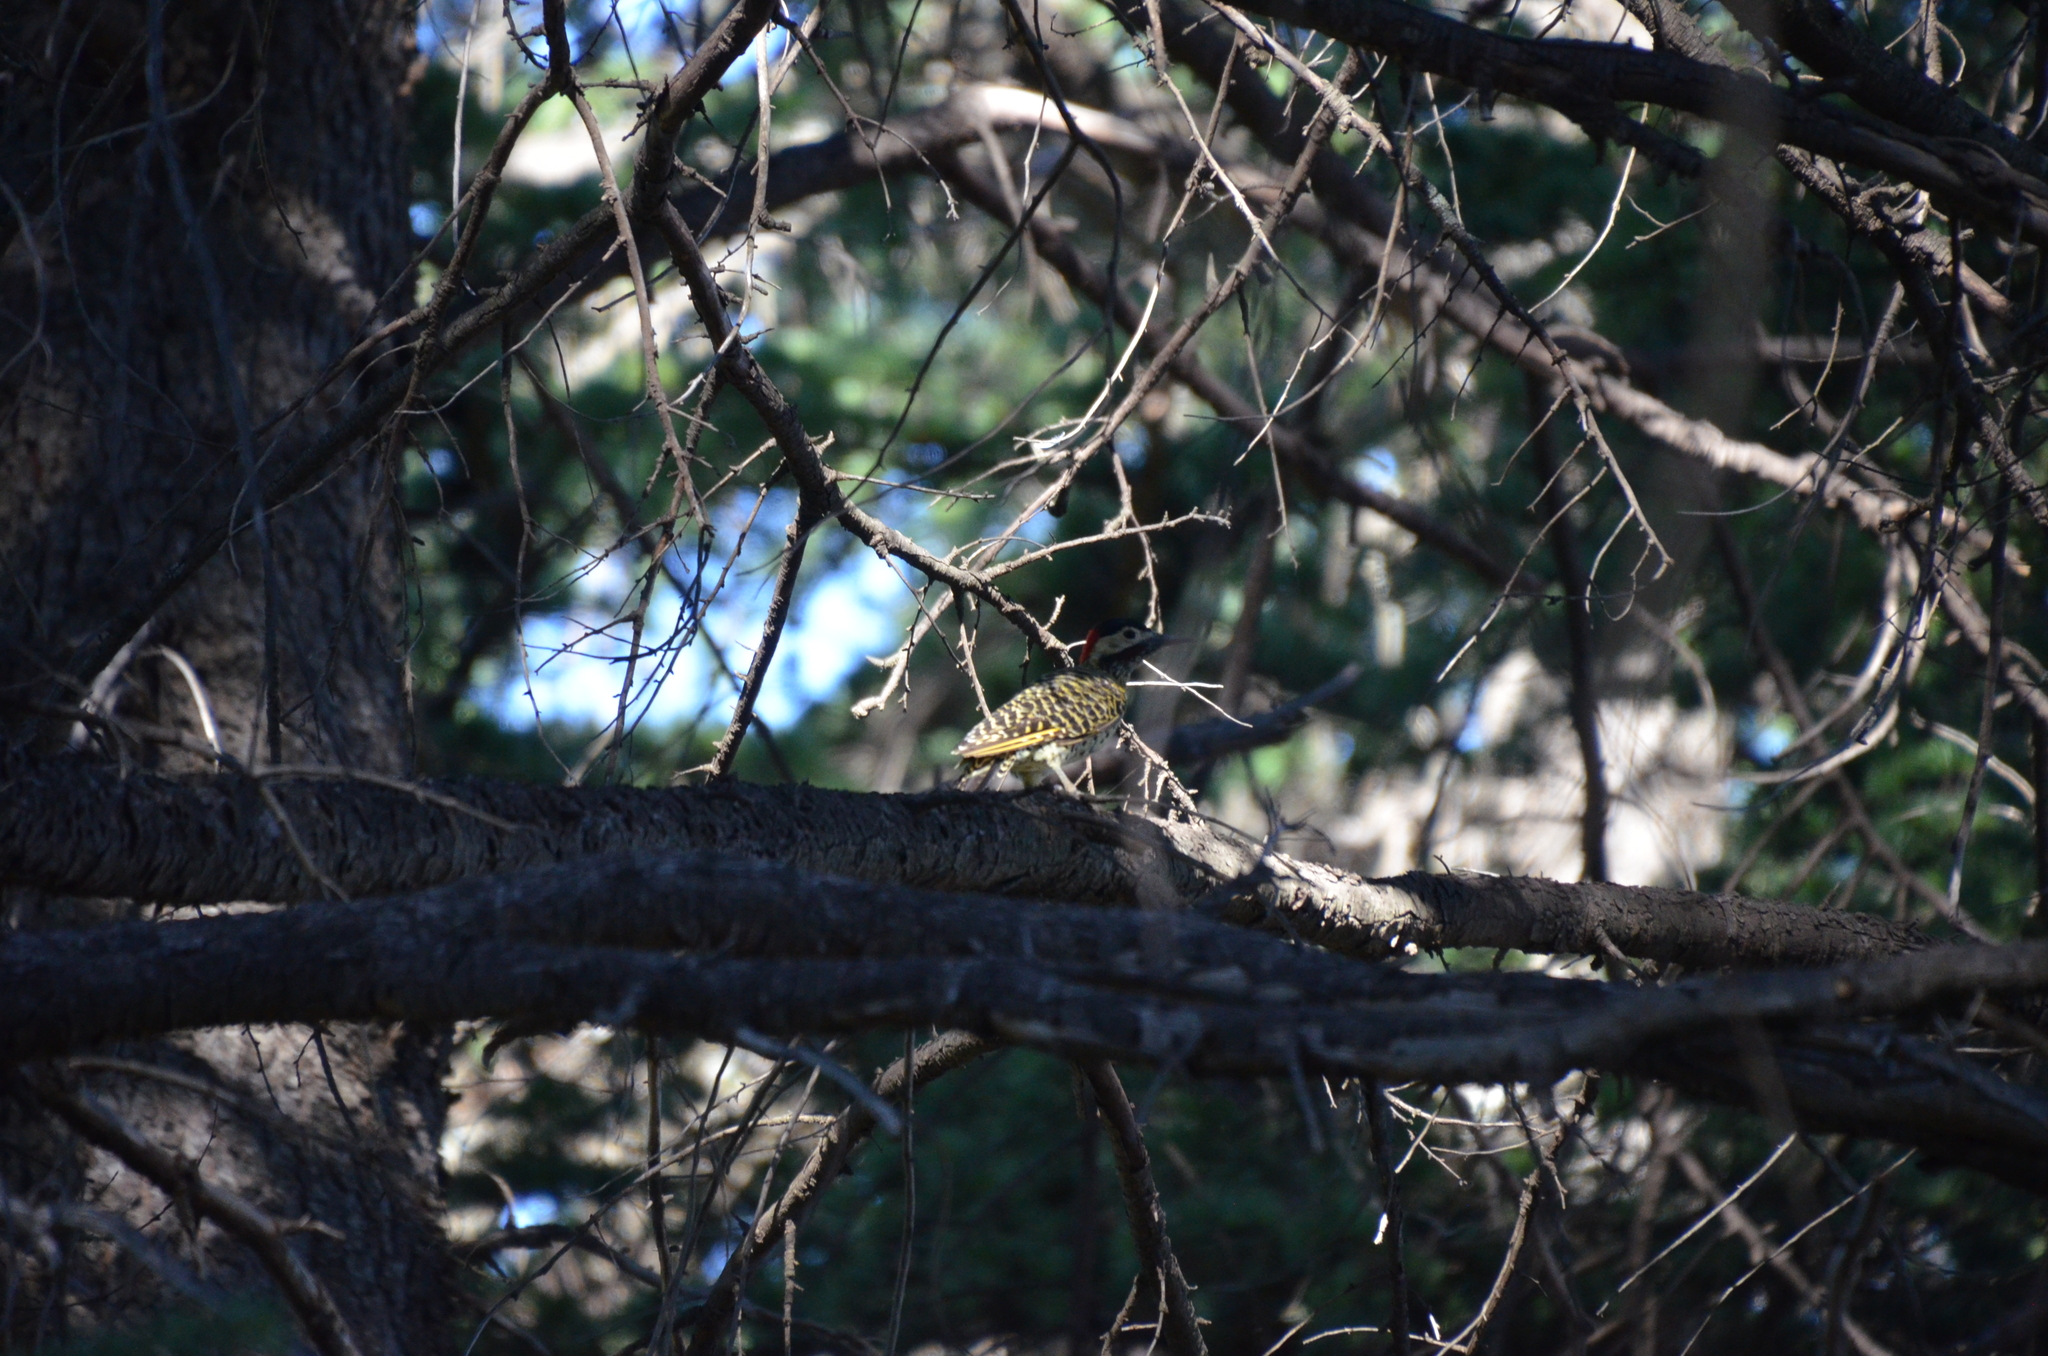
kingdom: Animalia
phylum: Chordata
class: Aves
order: Piciformes
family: Picidae
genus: Colaptes
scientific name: Colaptes melanochloros
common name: Green-barred woodpecker
